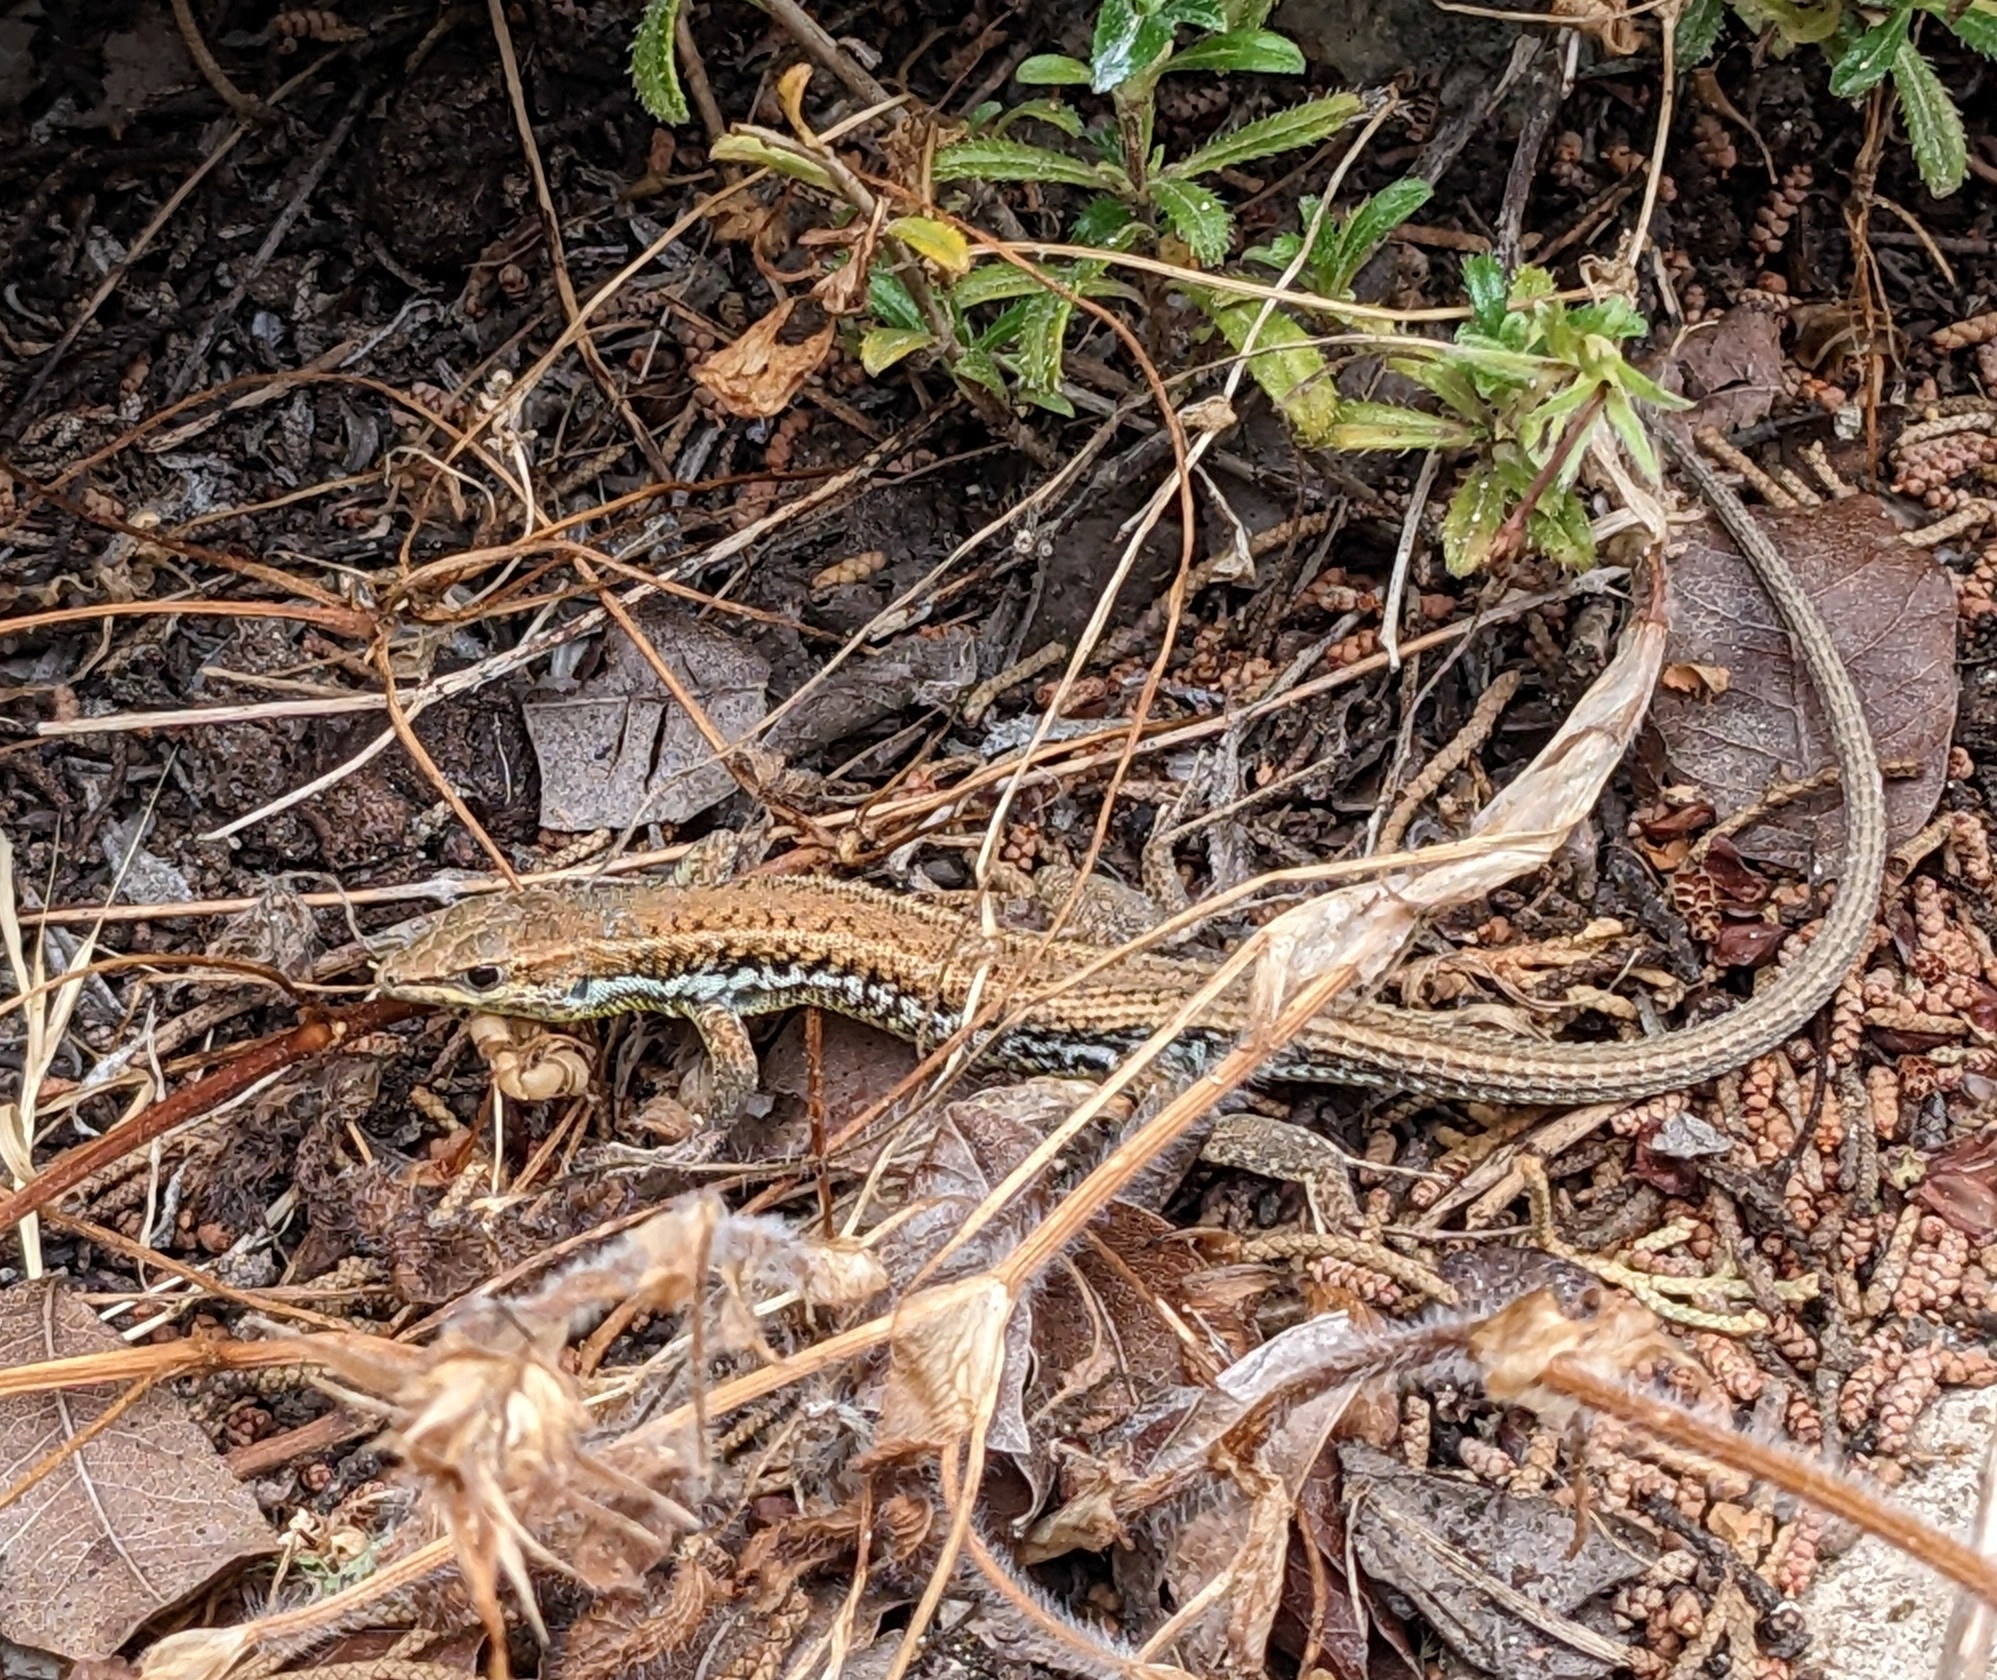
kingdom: Animalia
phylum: Chordata
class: Squamata
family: Lacertidae
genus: Ophisops
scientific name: Ophisops elegans
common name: Snake-eyed lizard
